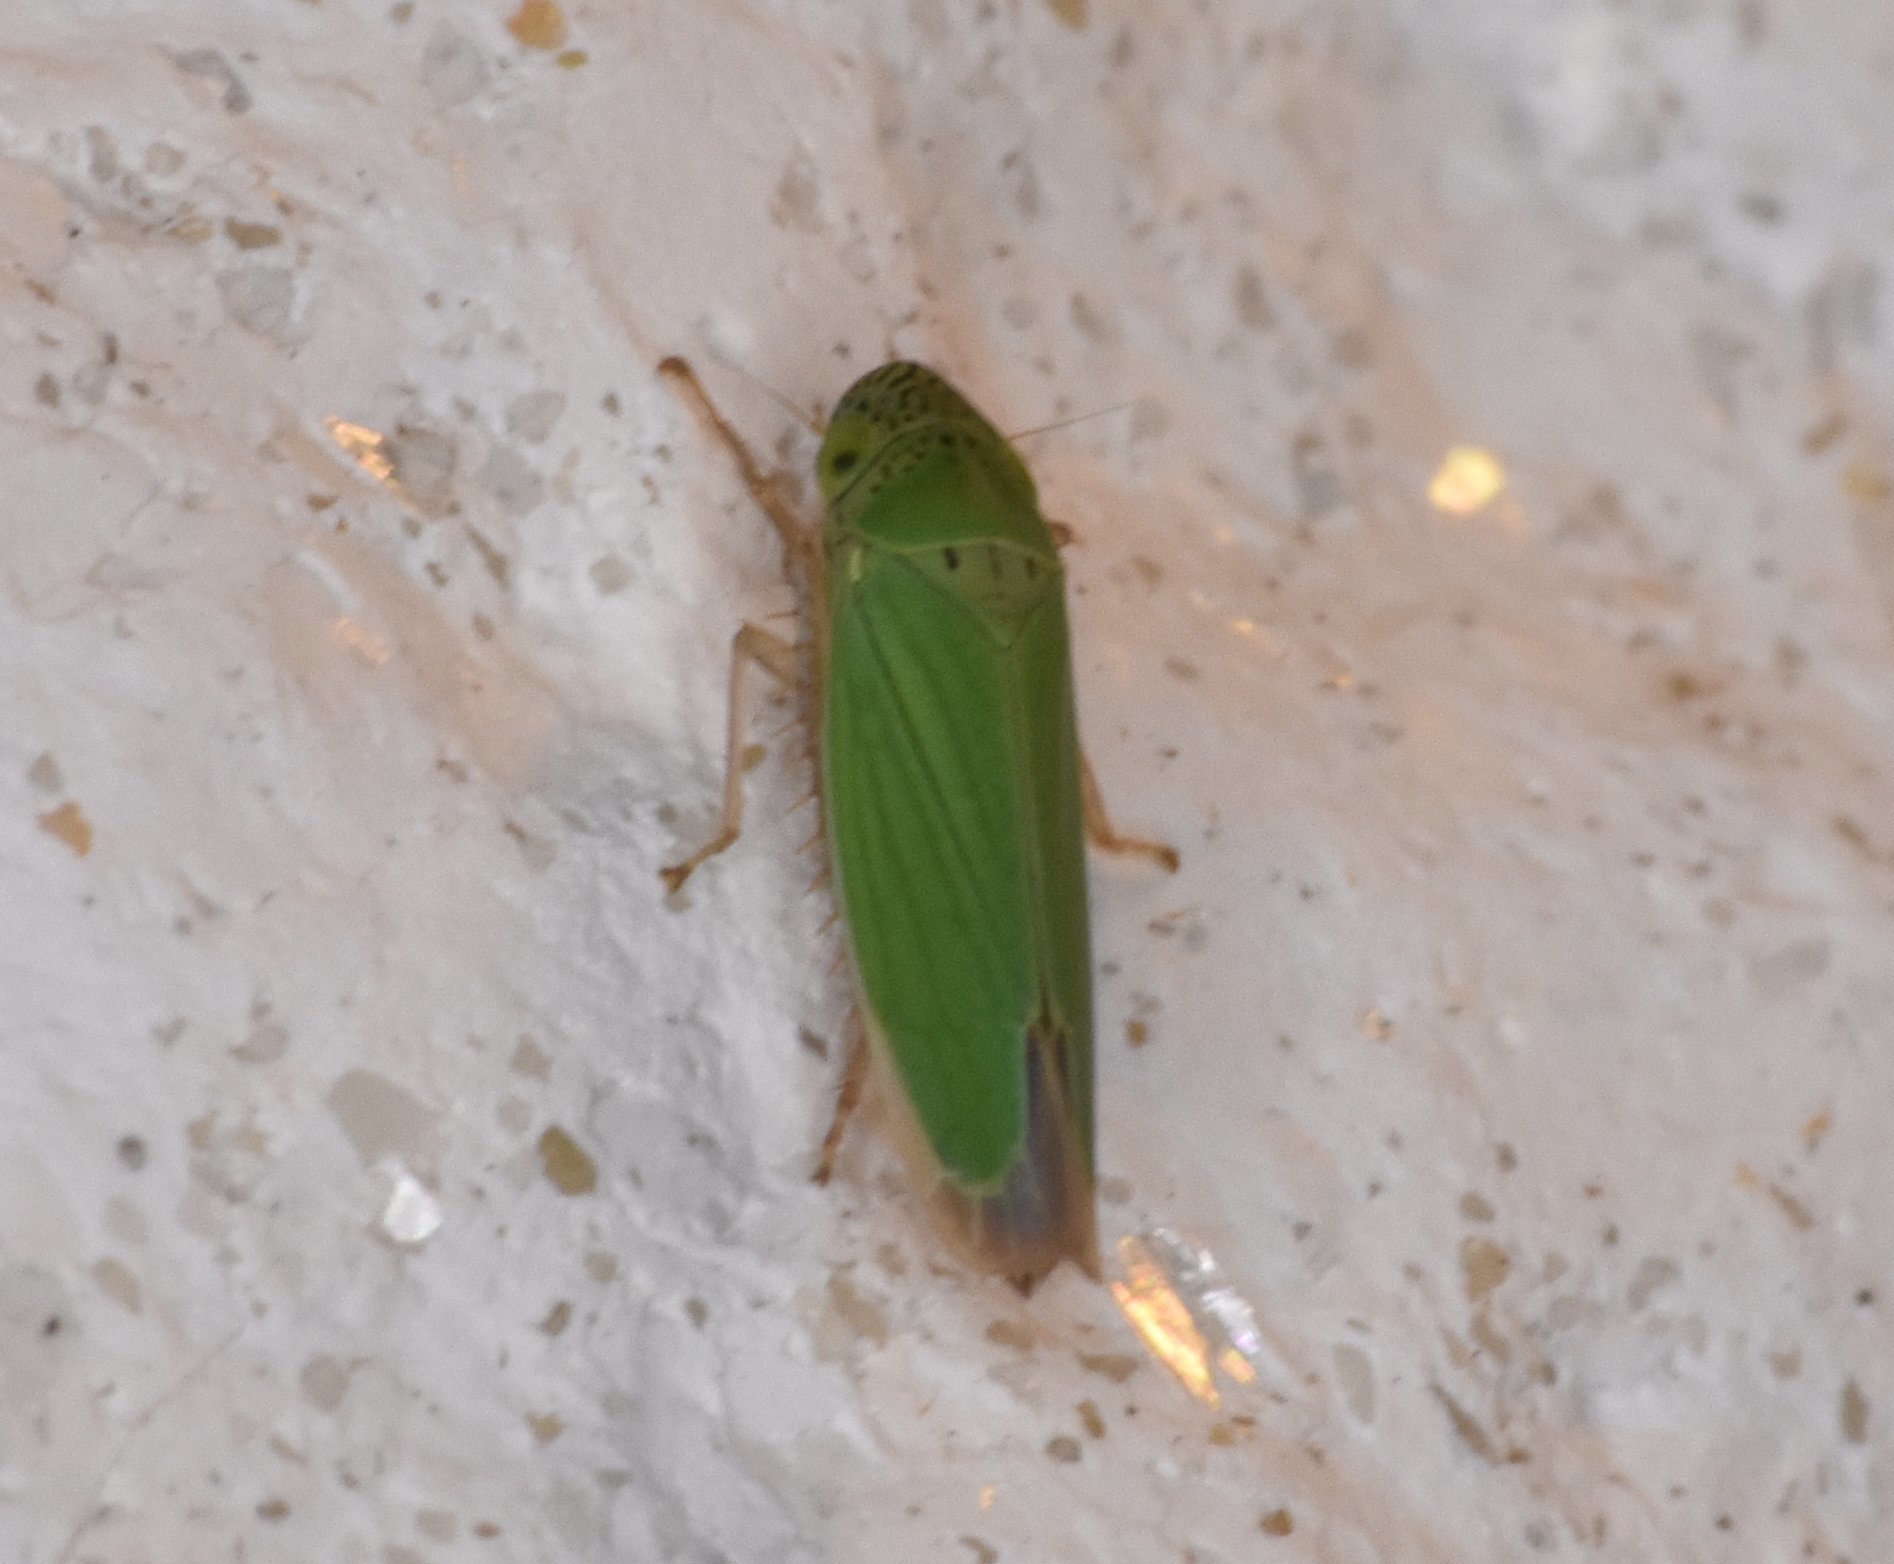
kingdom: Animalia
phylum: Arthropoda
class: Insecta
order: Hemiptera
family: Cicadellidae
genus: Hortensia
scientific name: Hortensia similis
